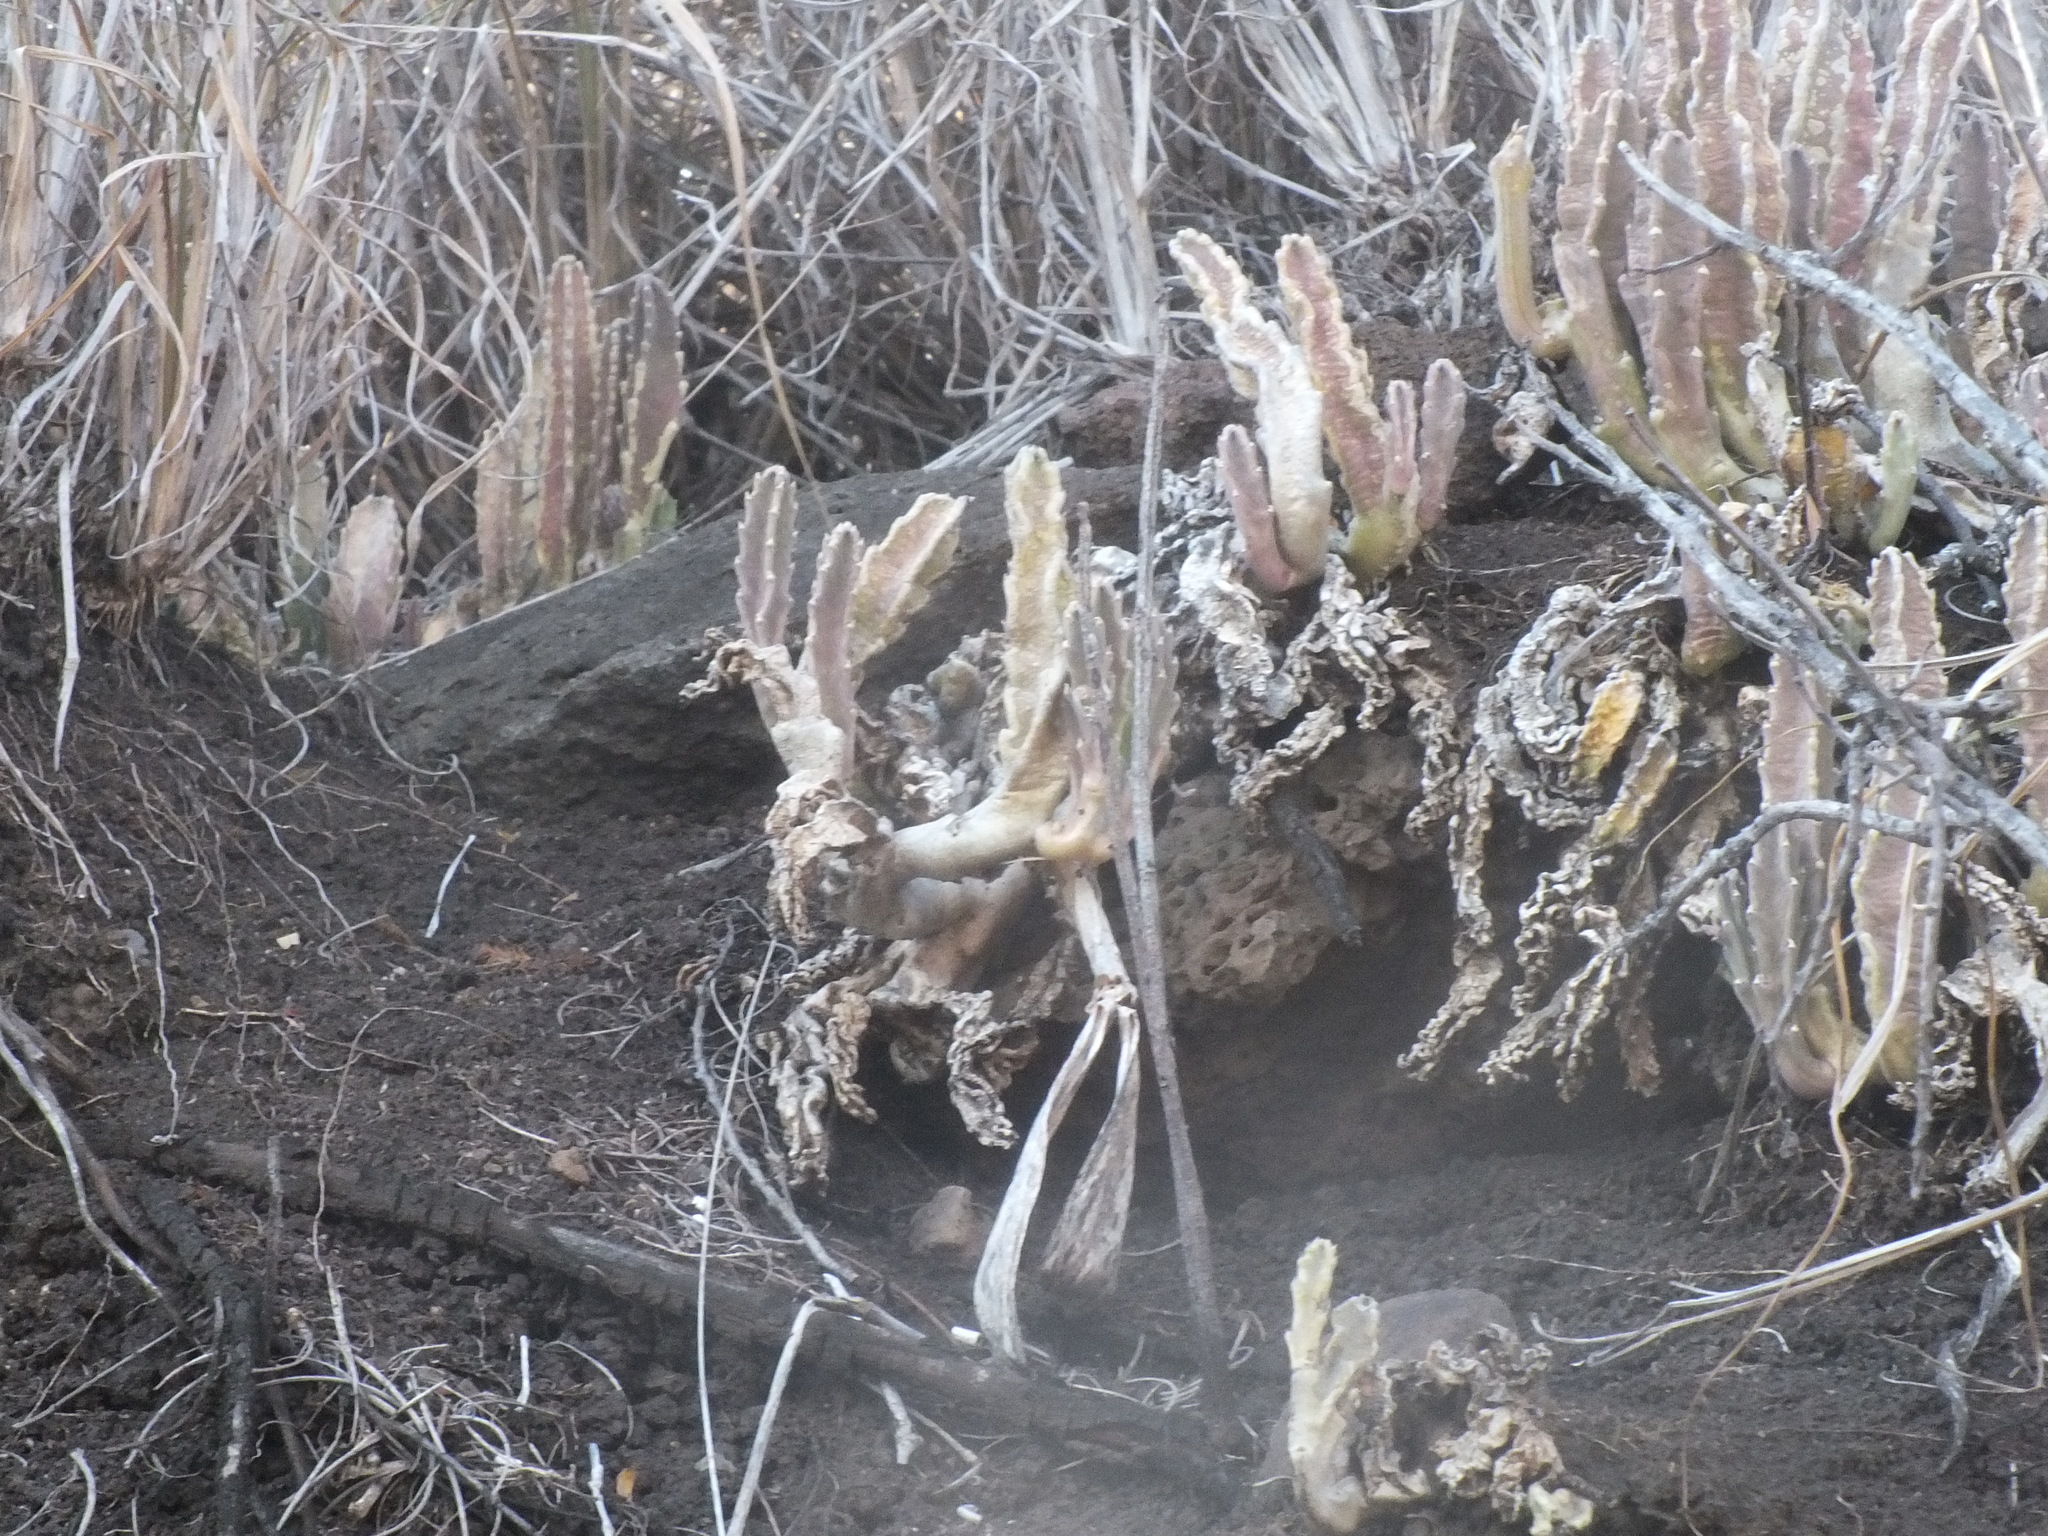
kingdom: Plantae
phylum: Tracheophyta
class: Magnoliopsida
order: Gentianales
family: Apocynaceae
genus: Ceropegia
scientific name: Ceropegia gigantea
